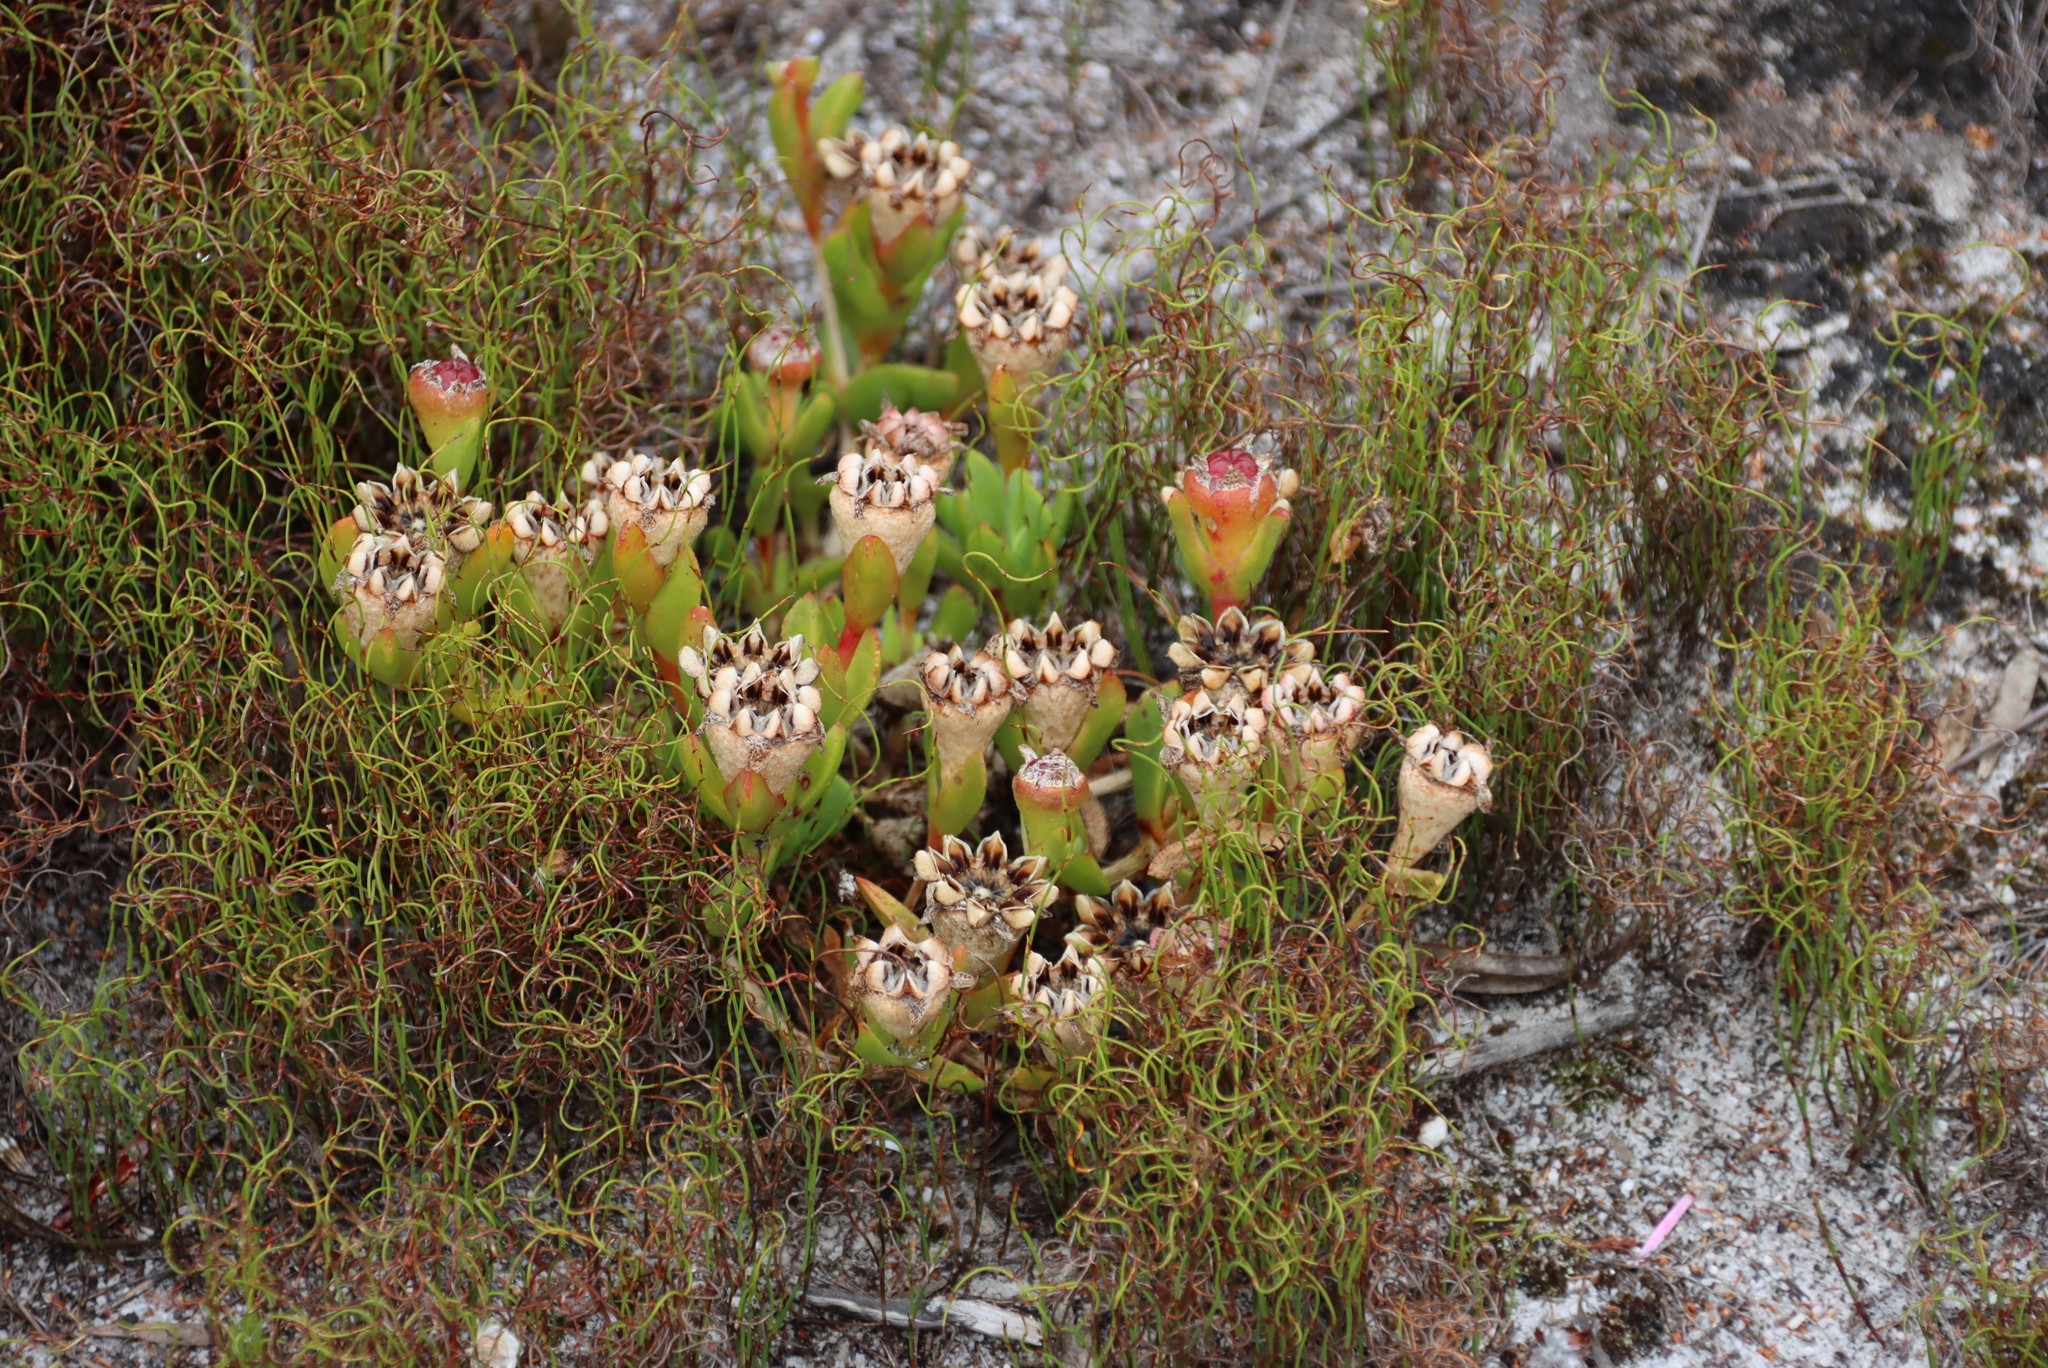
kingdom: Plantae
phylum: Tracheophyta
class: Magnoliopsida
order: Caryophyllales
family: Aizoaceae
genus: Erepsia
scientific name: Erepsia babiloniae
